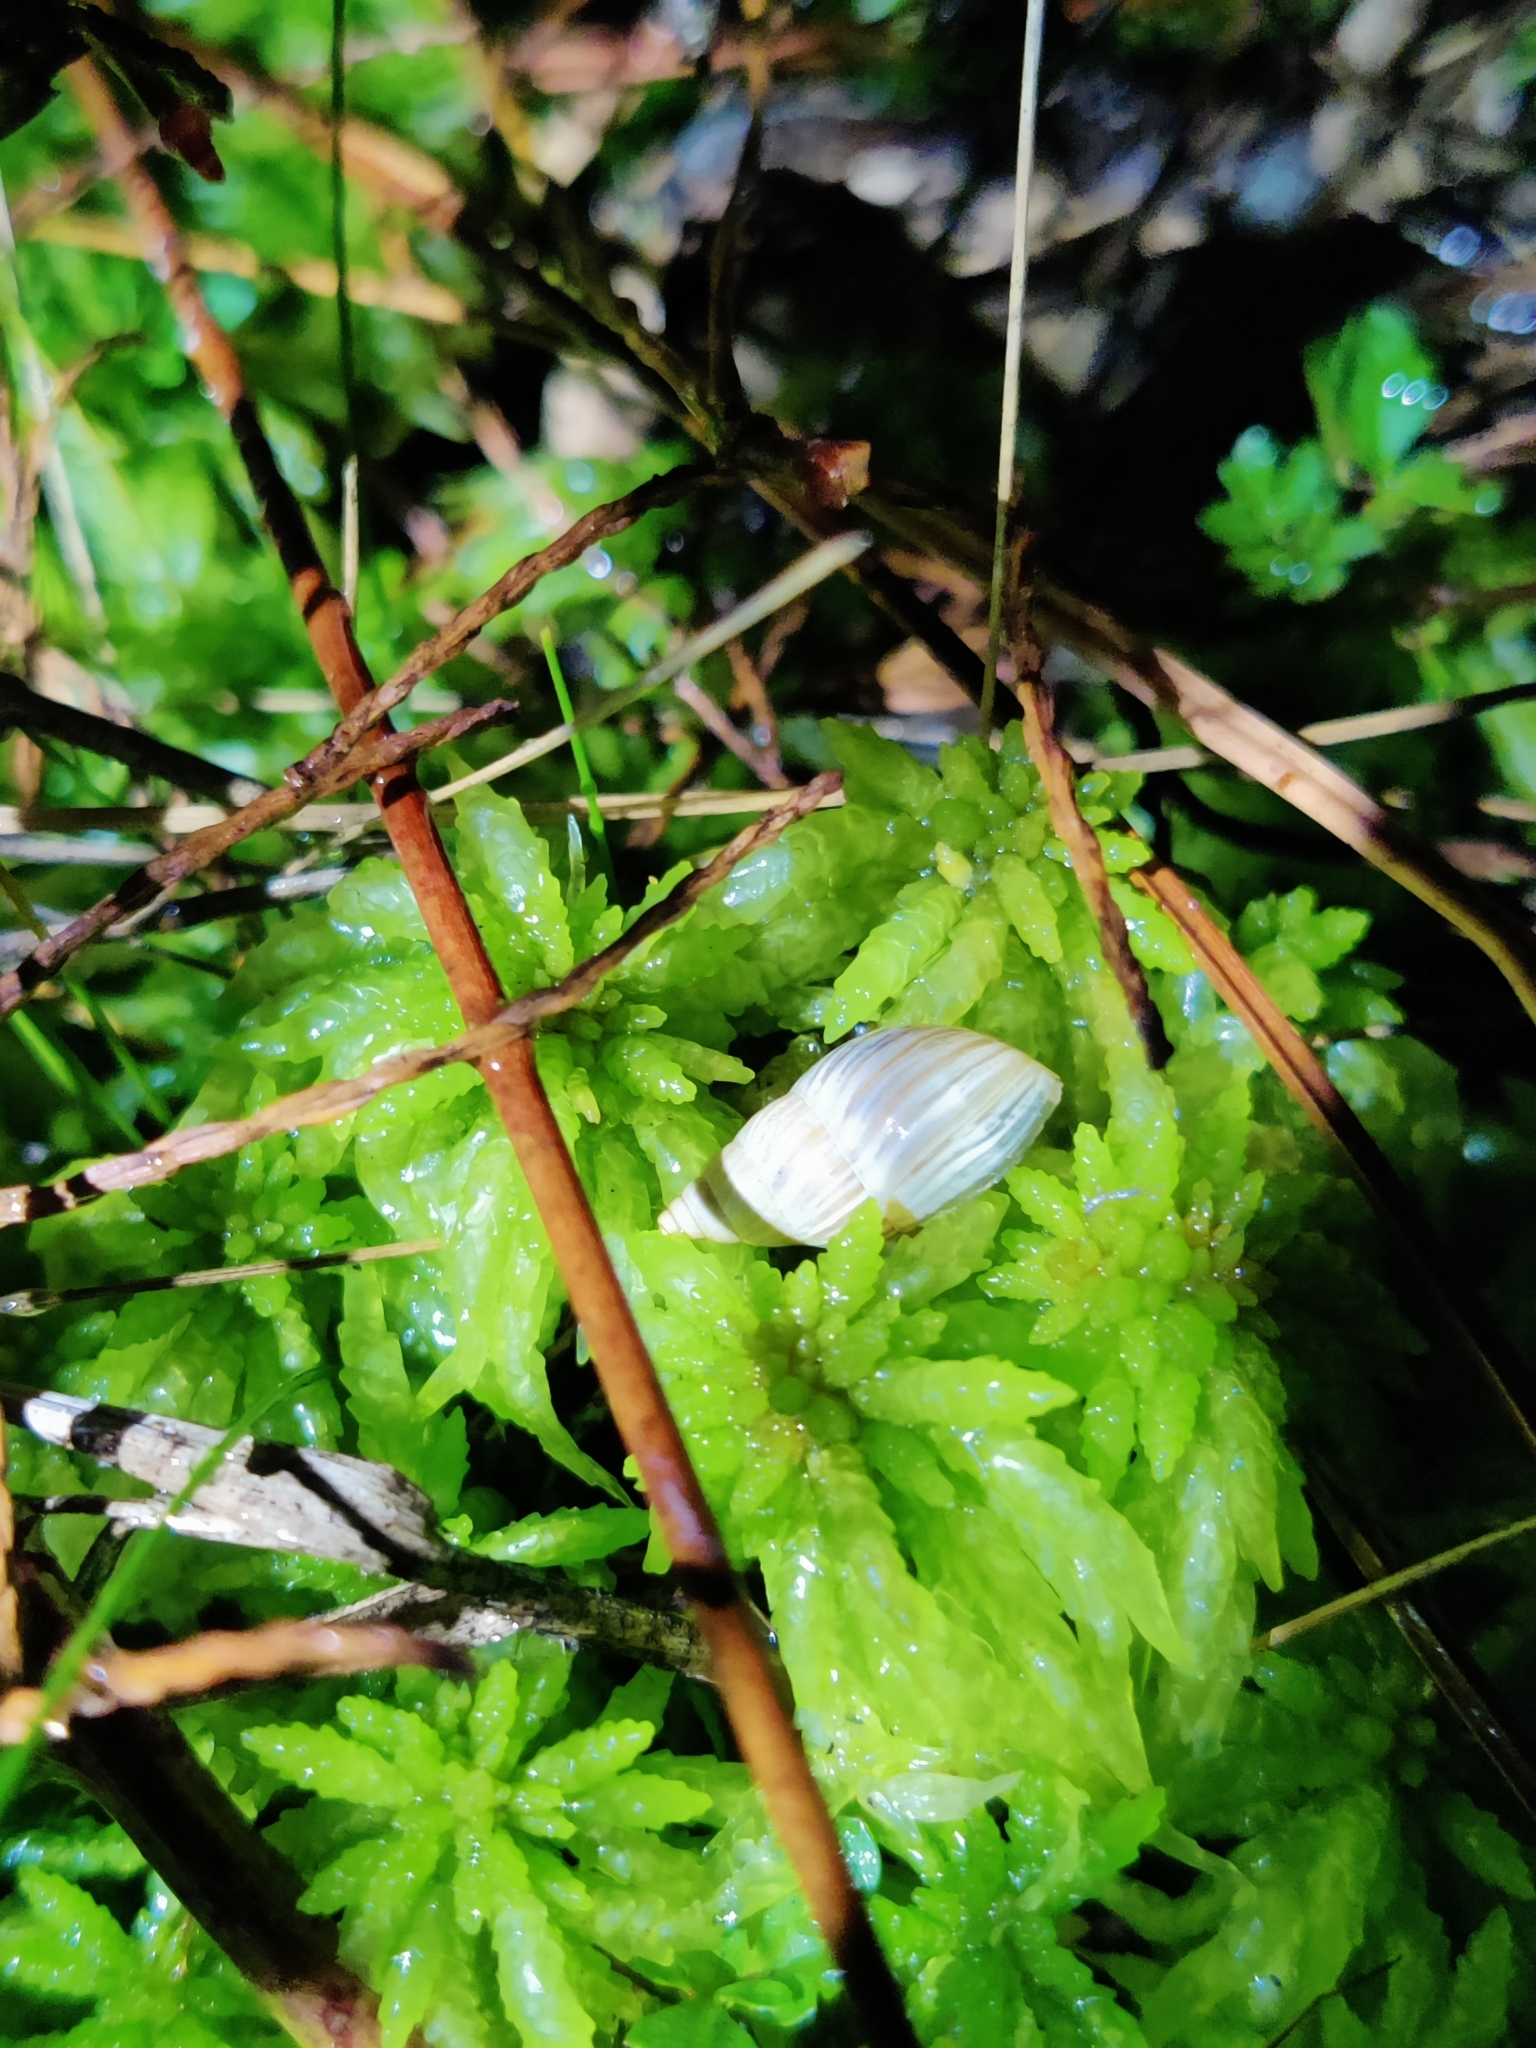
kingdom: Animalia
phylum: Mollusca
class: Gastropoda
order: Stylommatophora
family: Bulimulidae
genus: Bulimulus
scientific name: Bulimulus bonariensis
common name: Snail
